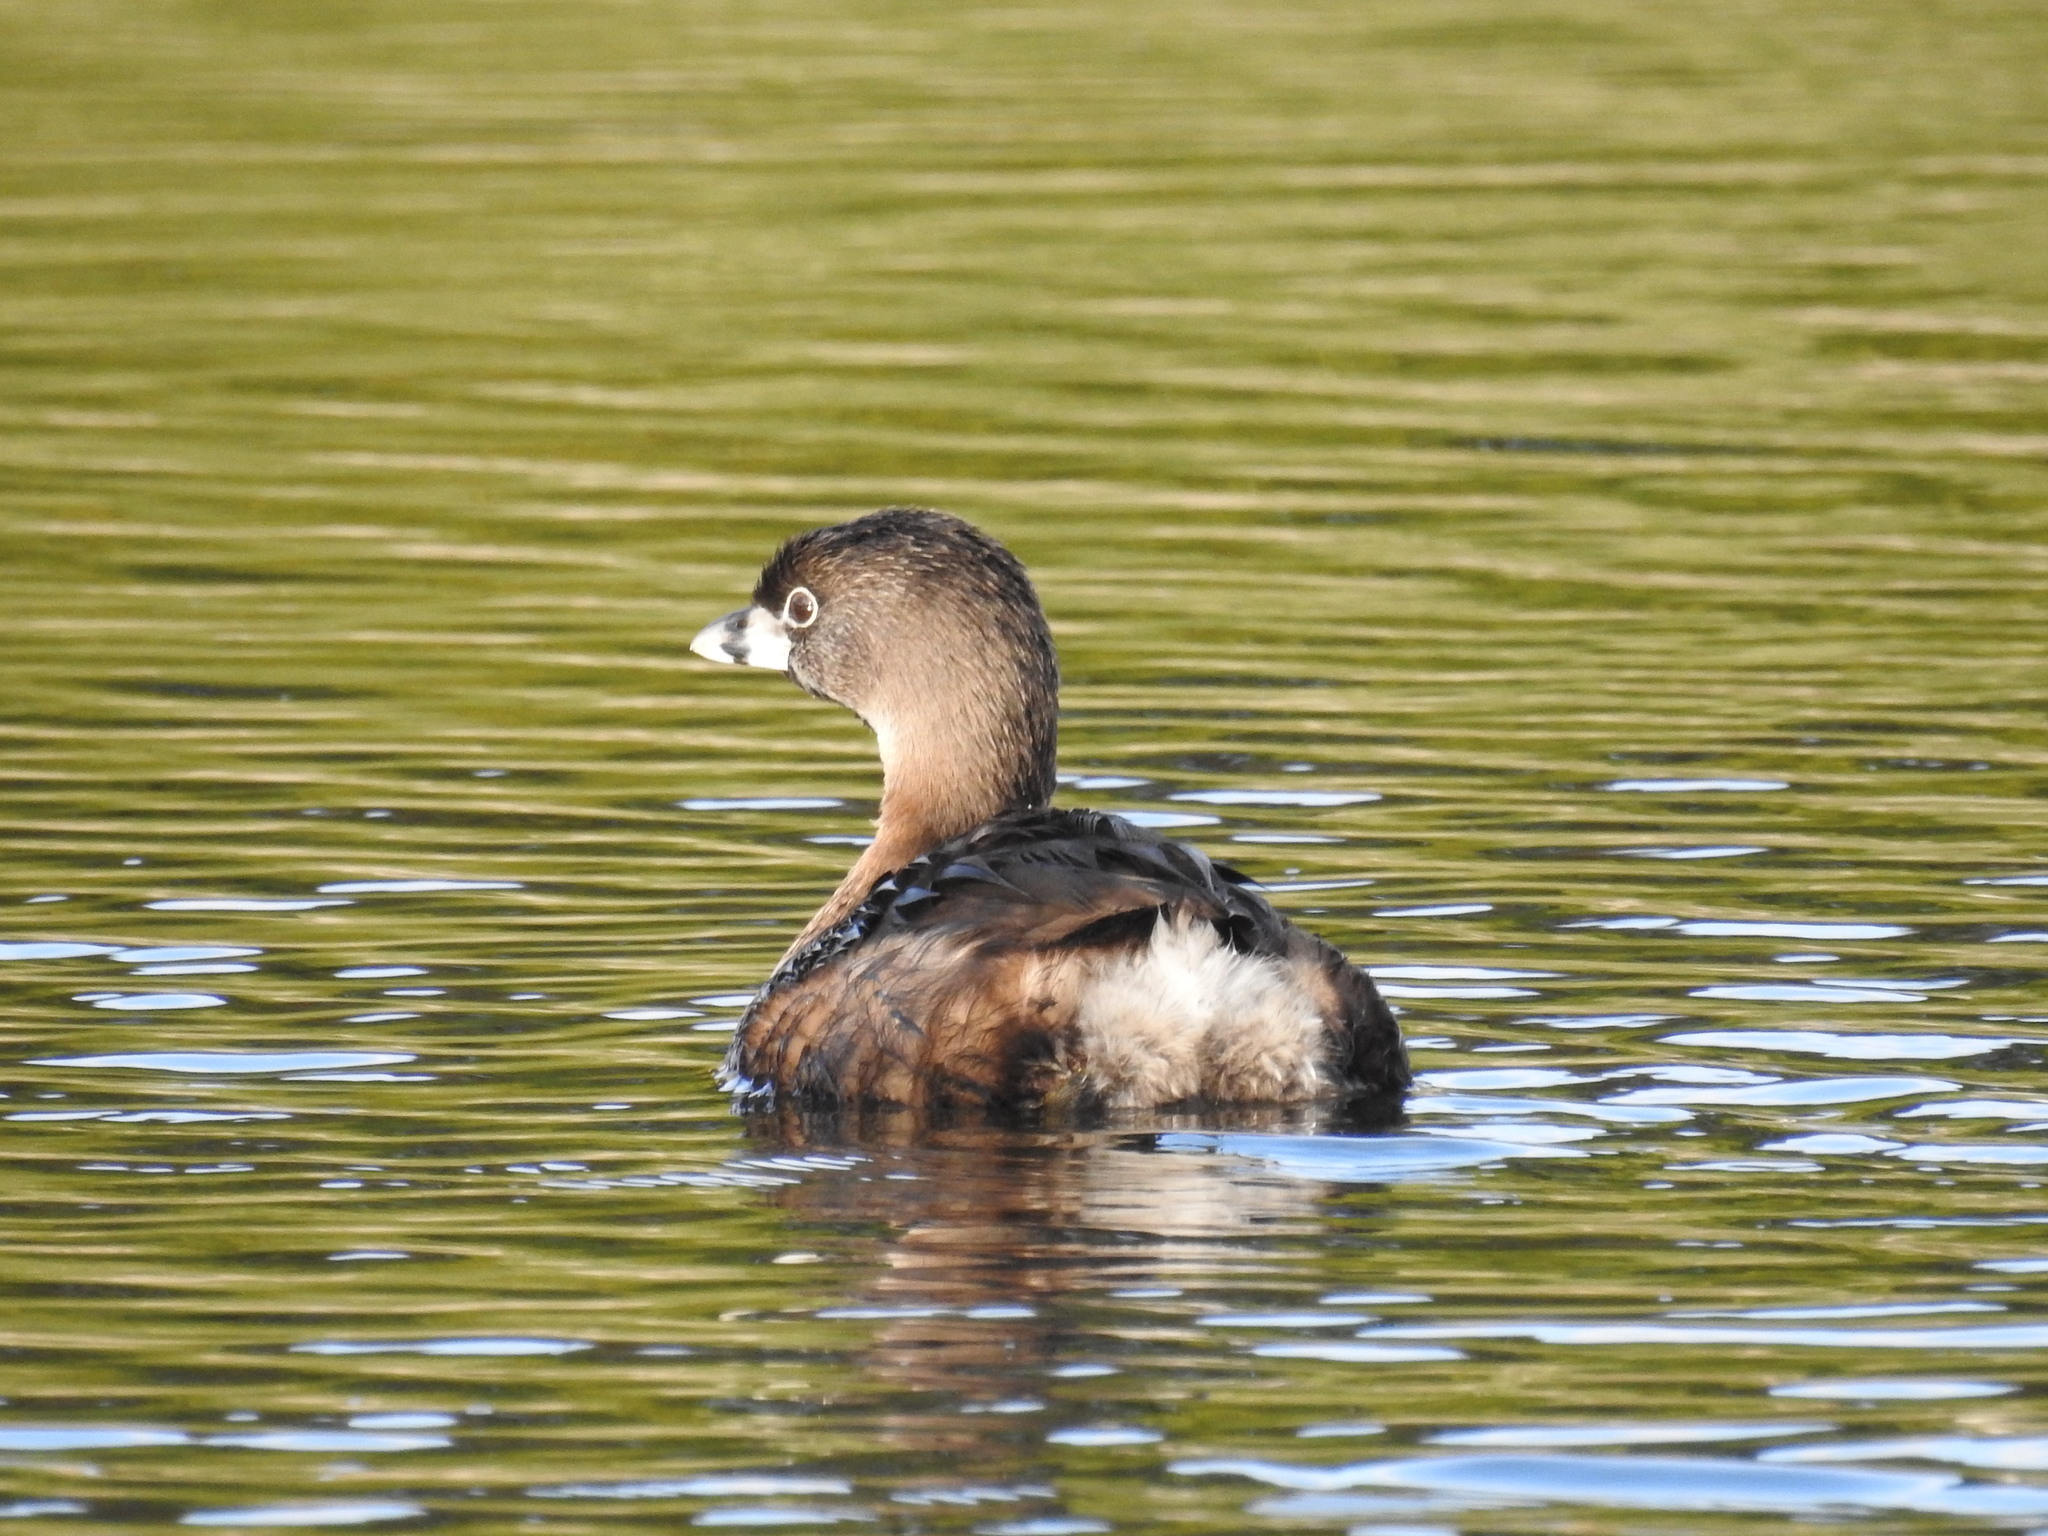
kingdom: Animalia
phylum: Chordata
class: Aves
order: Podicipediformes
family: Podicipedidae
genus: Podilymbus
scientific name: Podilymbus podiceps
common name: Pied-billed grebe
